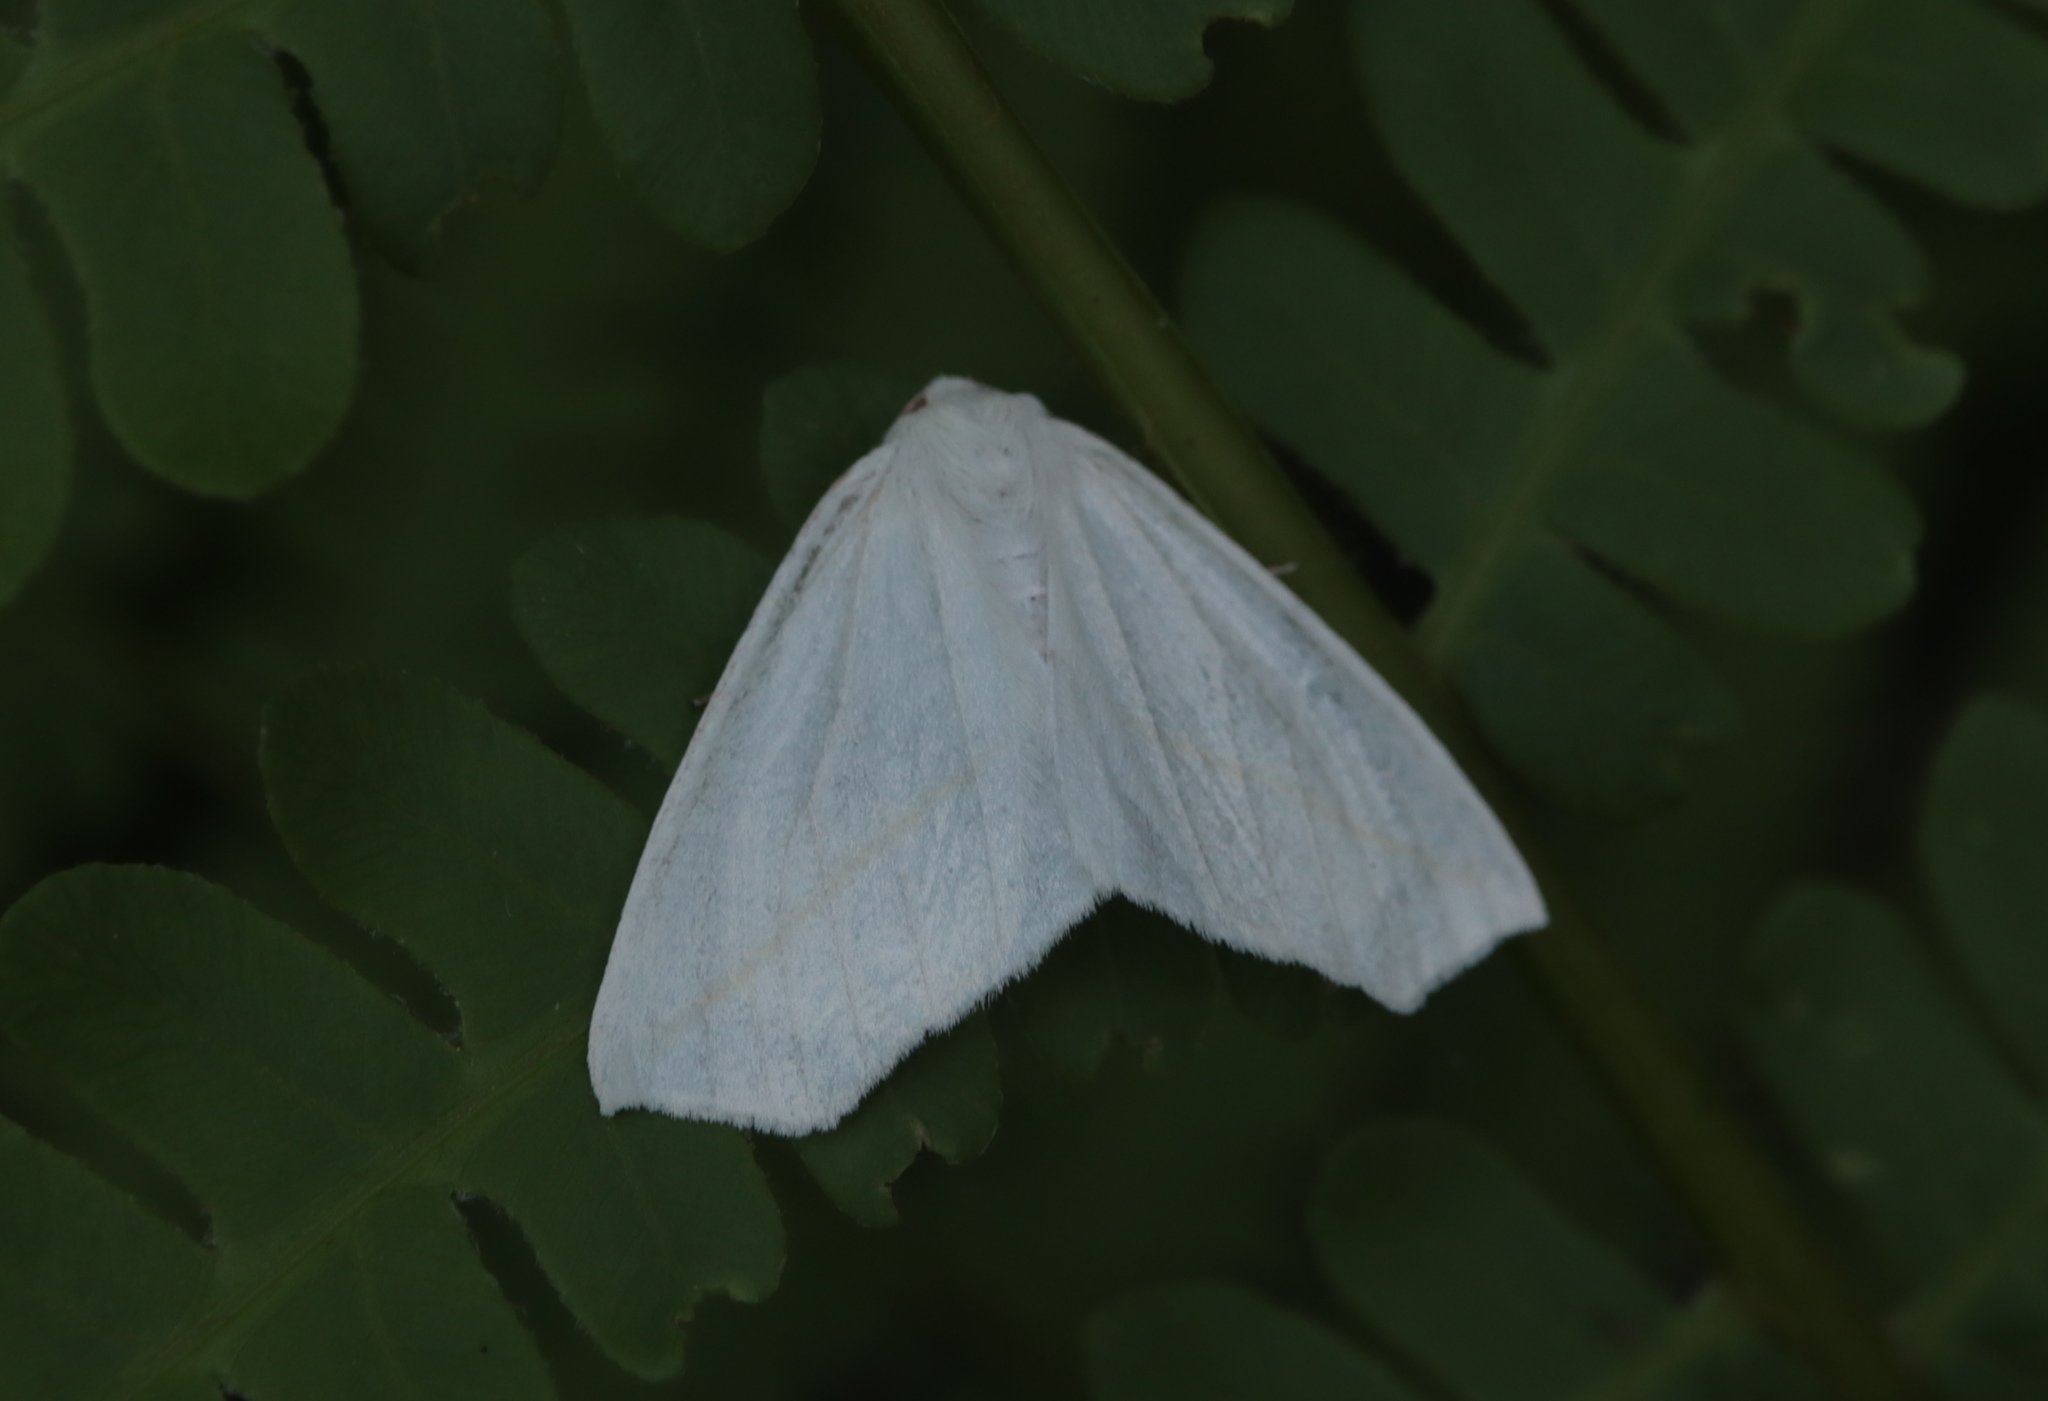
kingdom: Animalia
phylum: Arthropoda
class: Insecta
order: Lepidoptera
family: Geometridae
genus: Tetracis
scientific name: Tetracis cachexiata
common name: White slant-line
